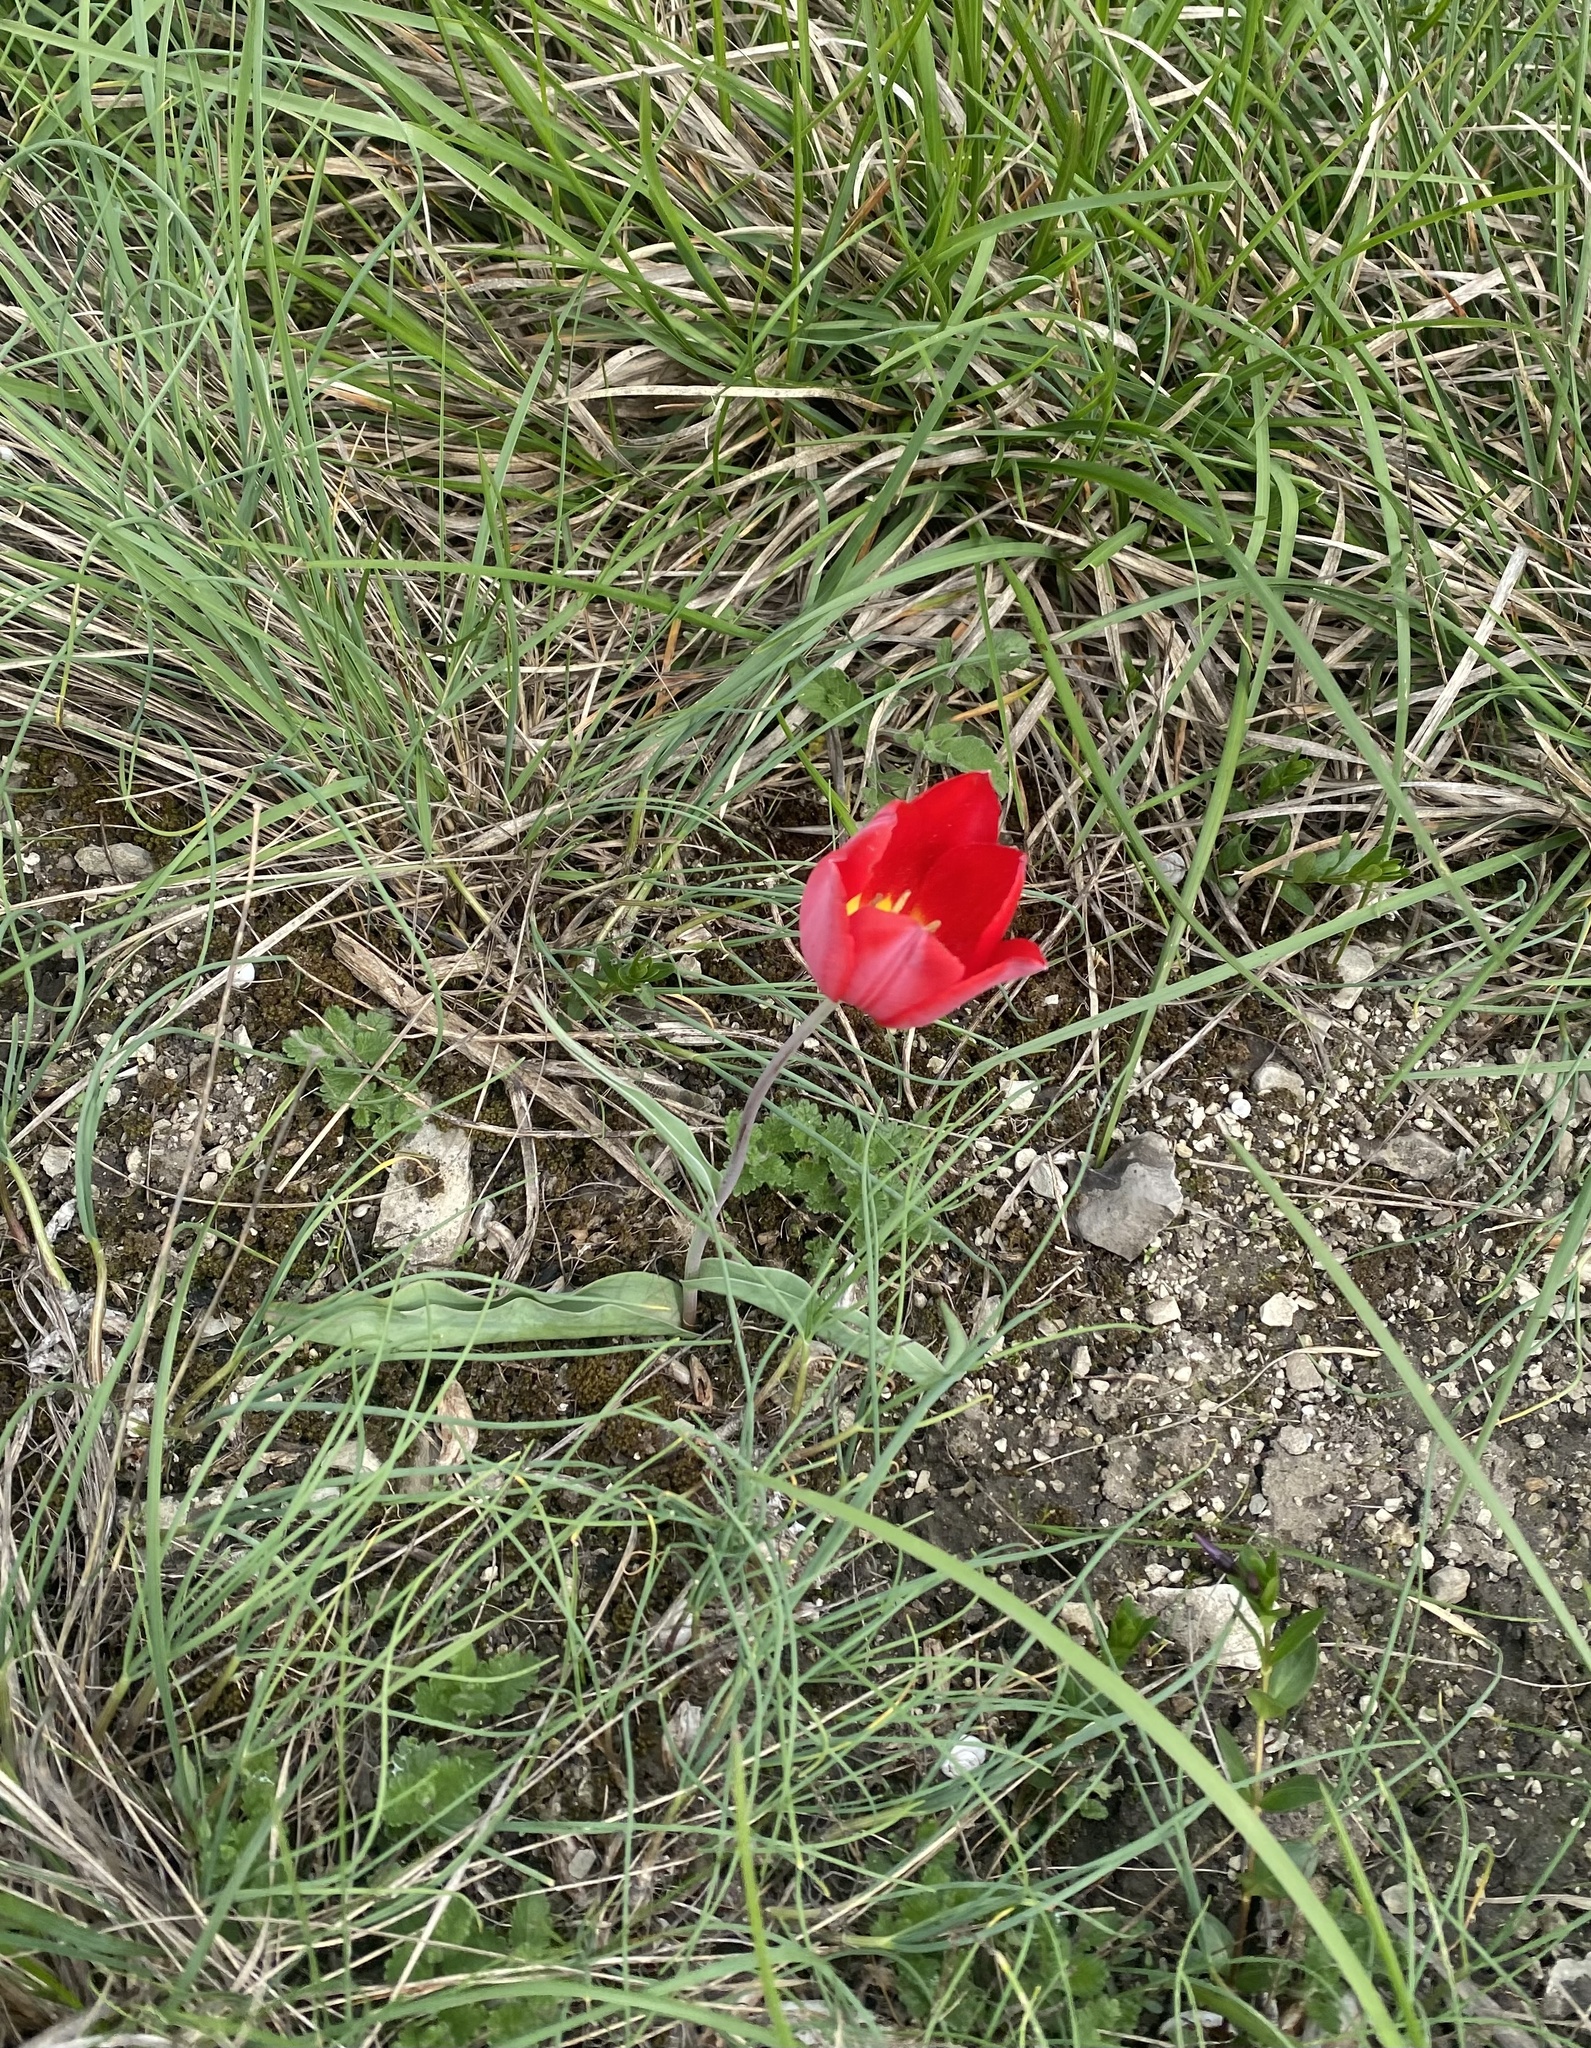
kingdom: Plantae
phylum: Tracheophyta
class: Liliopsida
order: Liliales
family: Liliaceae
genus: Tulipa
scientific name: Tulipa suaveolens
